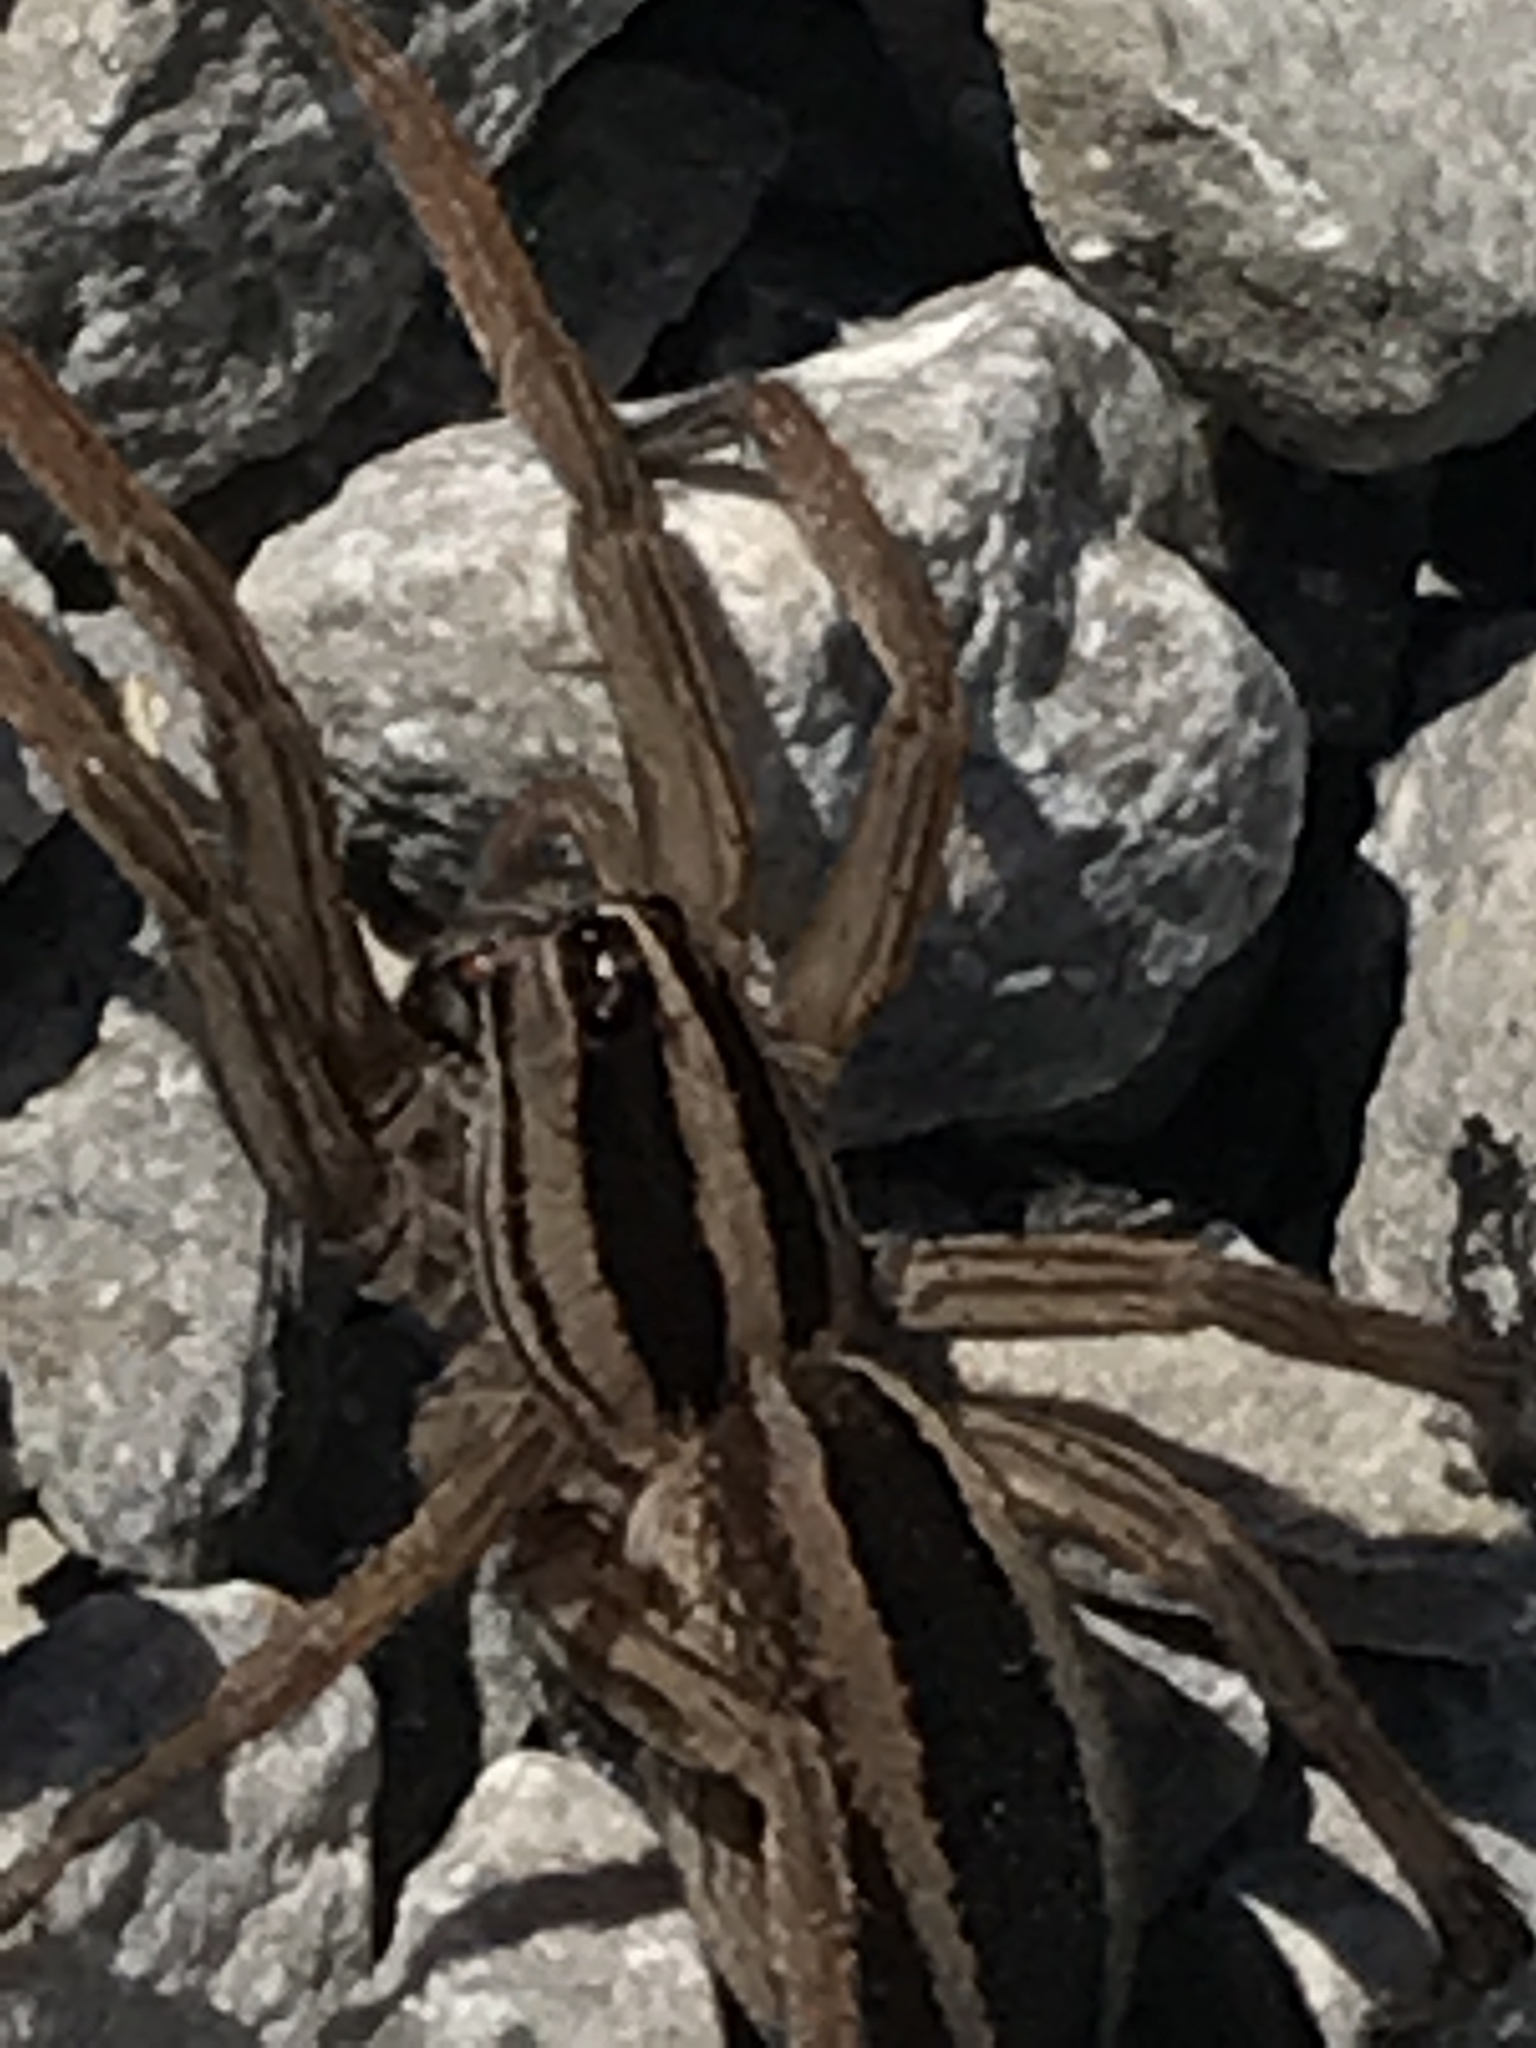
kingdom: Animalia
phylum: Arthropoda
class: Arachnida
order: Araneae
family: Lycosidae
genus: Rabidosa
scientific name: Rabidosa punctulata
